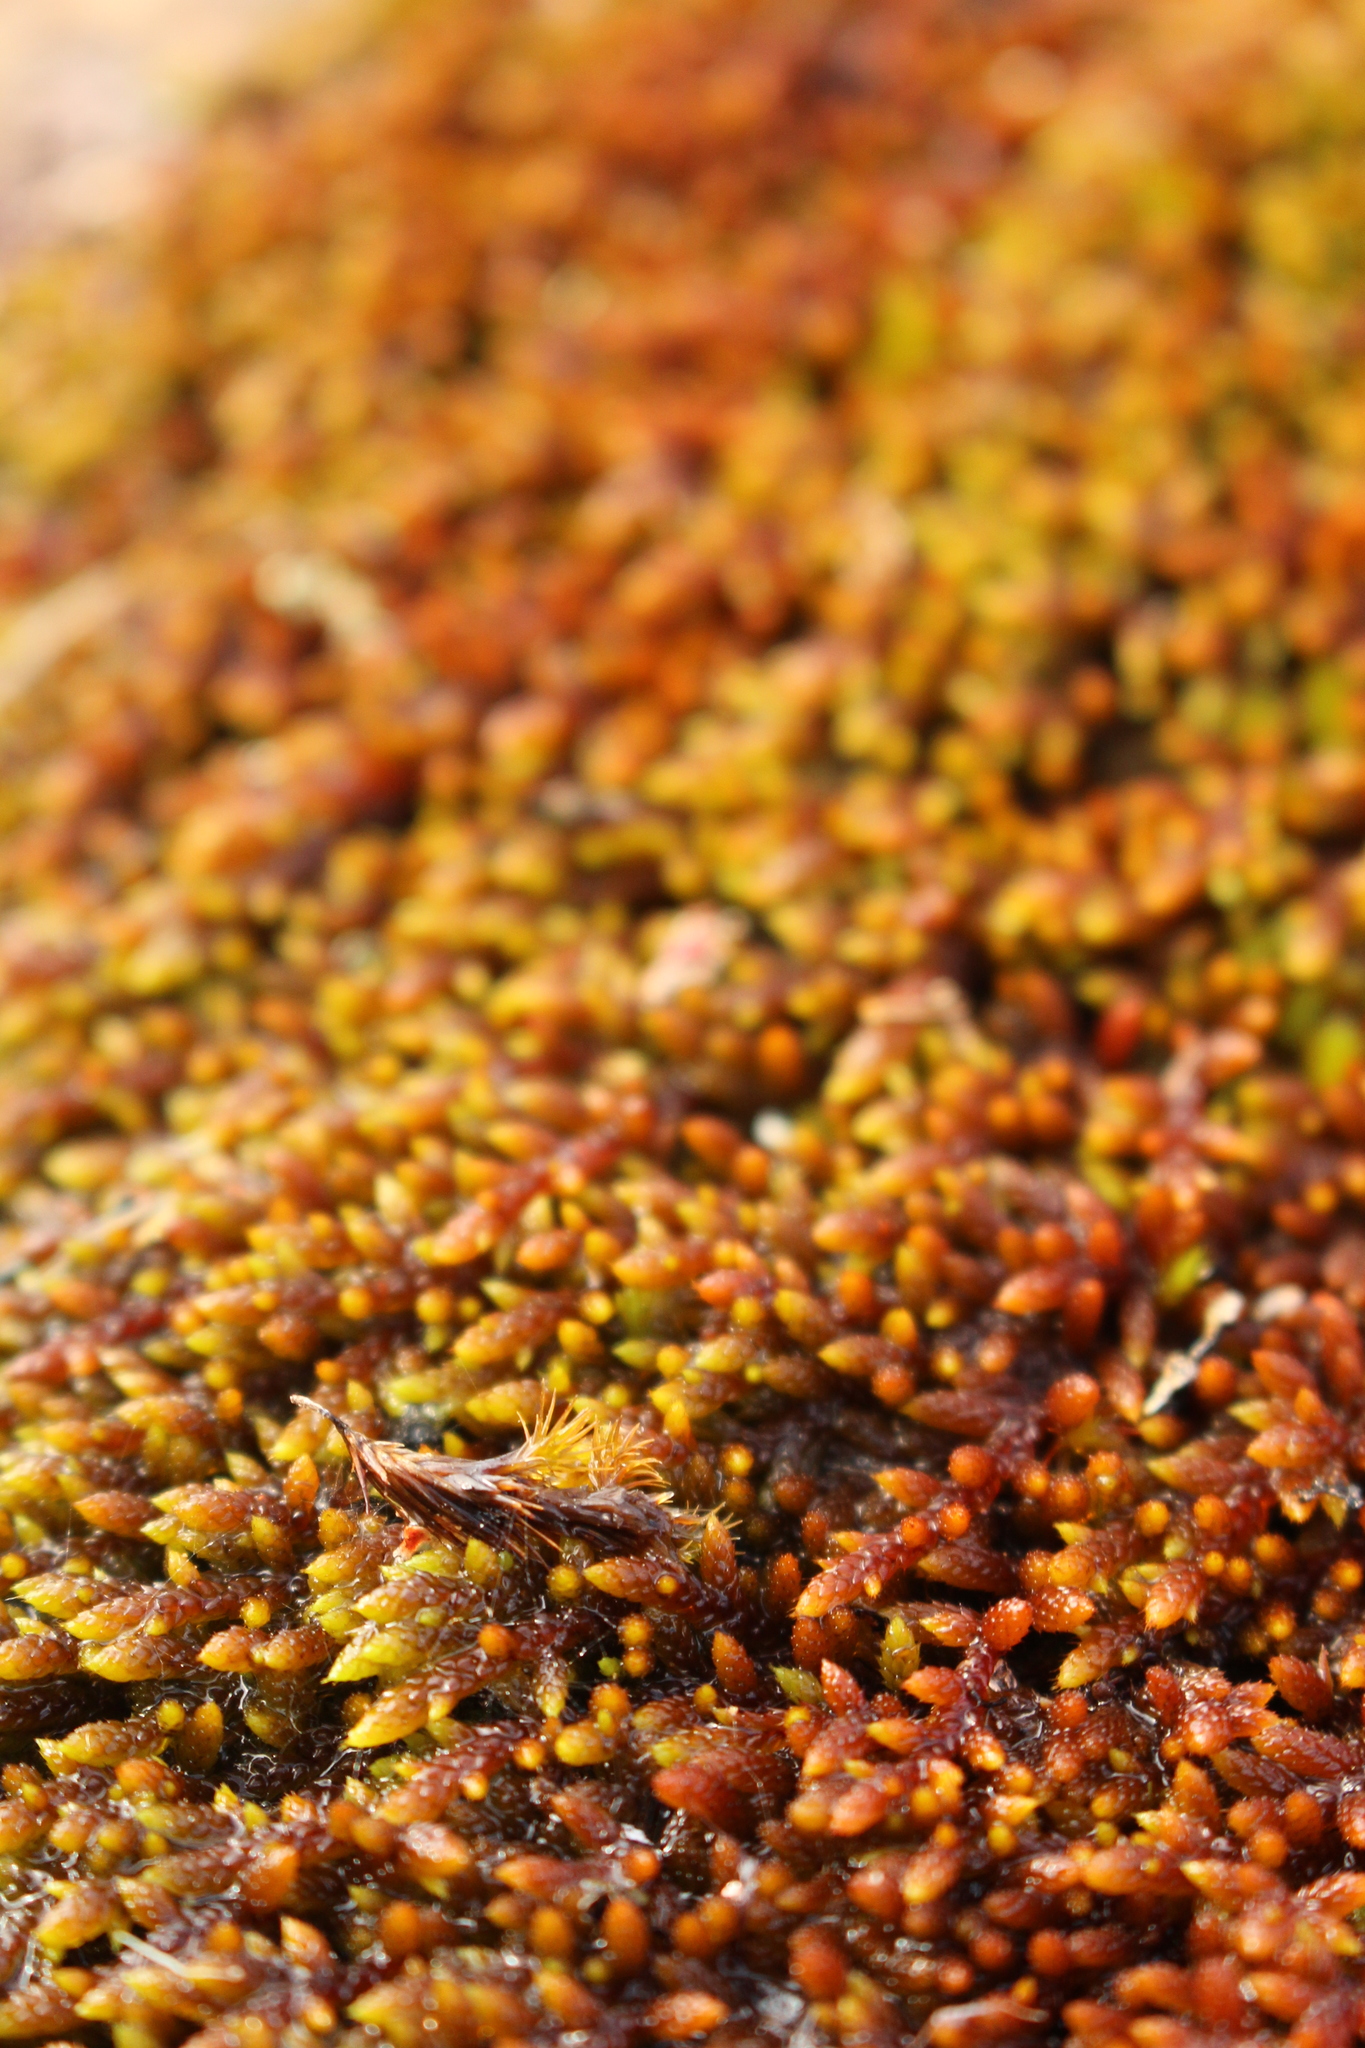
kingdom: Plantae
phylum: Bryophyta
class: Bryopsida
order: Hedwigiales
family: Hedwigiaceae
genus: Rhacocarpus
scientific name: Rhacocarpus purpurascens
